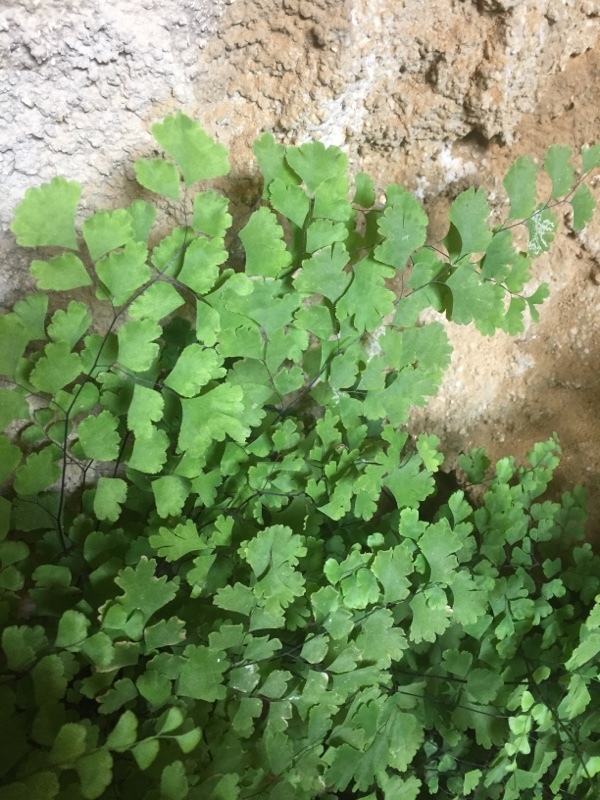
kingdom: Plantae
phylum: Tracheophyta
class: Polypodiopsida
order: Polypodiales
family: Pteridaceae
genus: Adiantum
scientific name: Adiantum capillus-veneris
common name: Maidenhair fern
